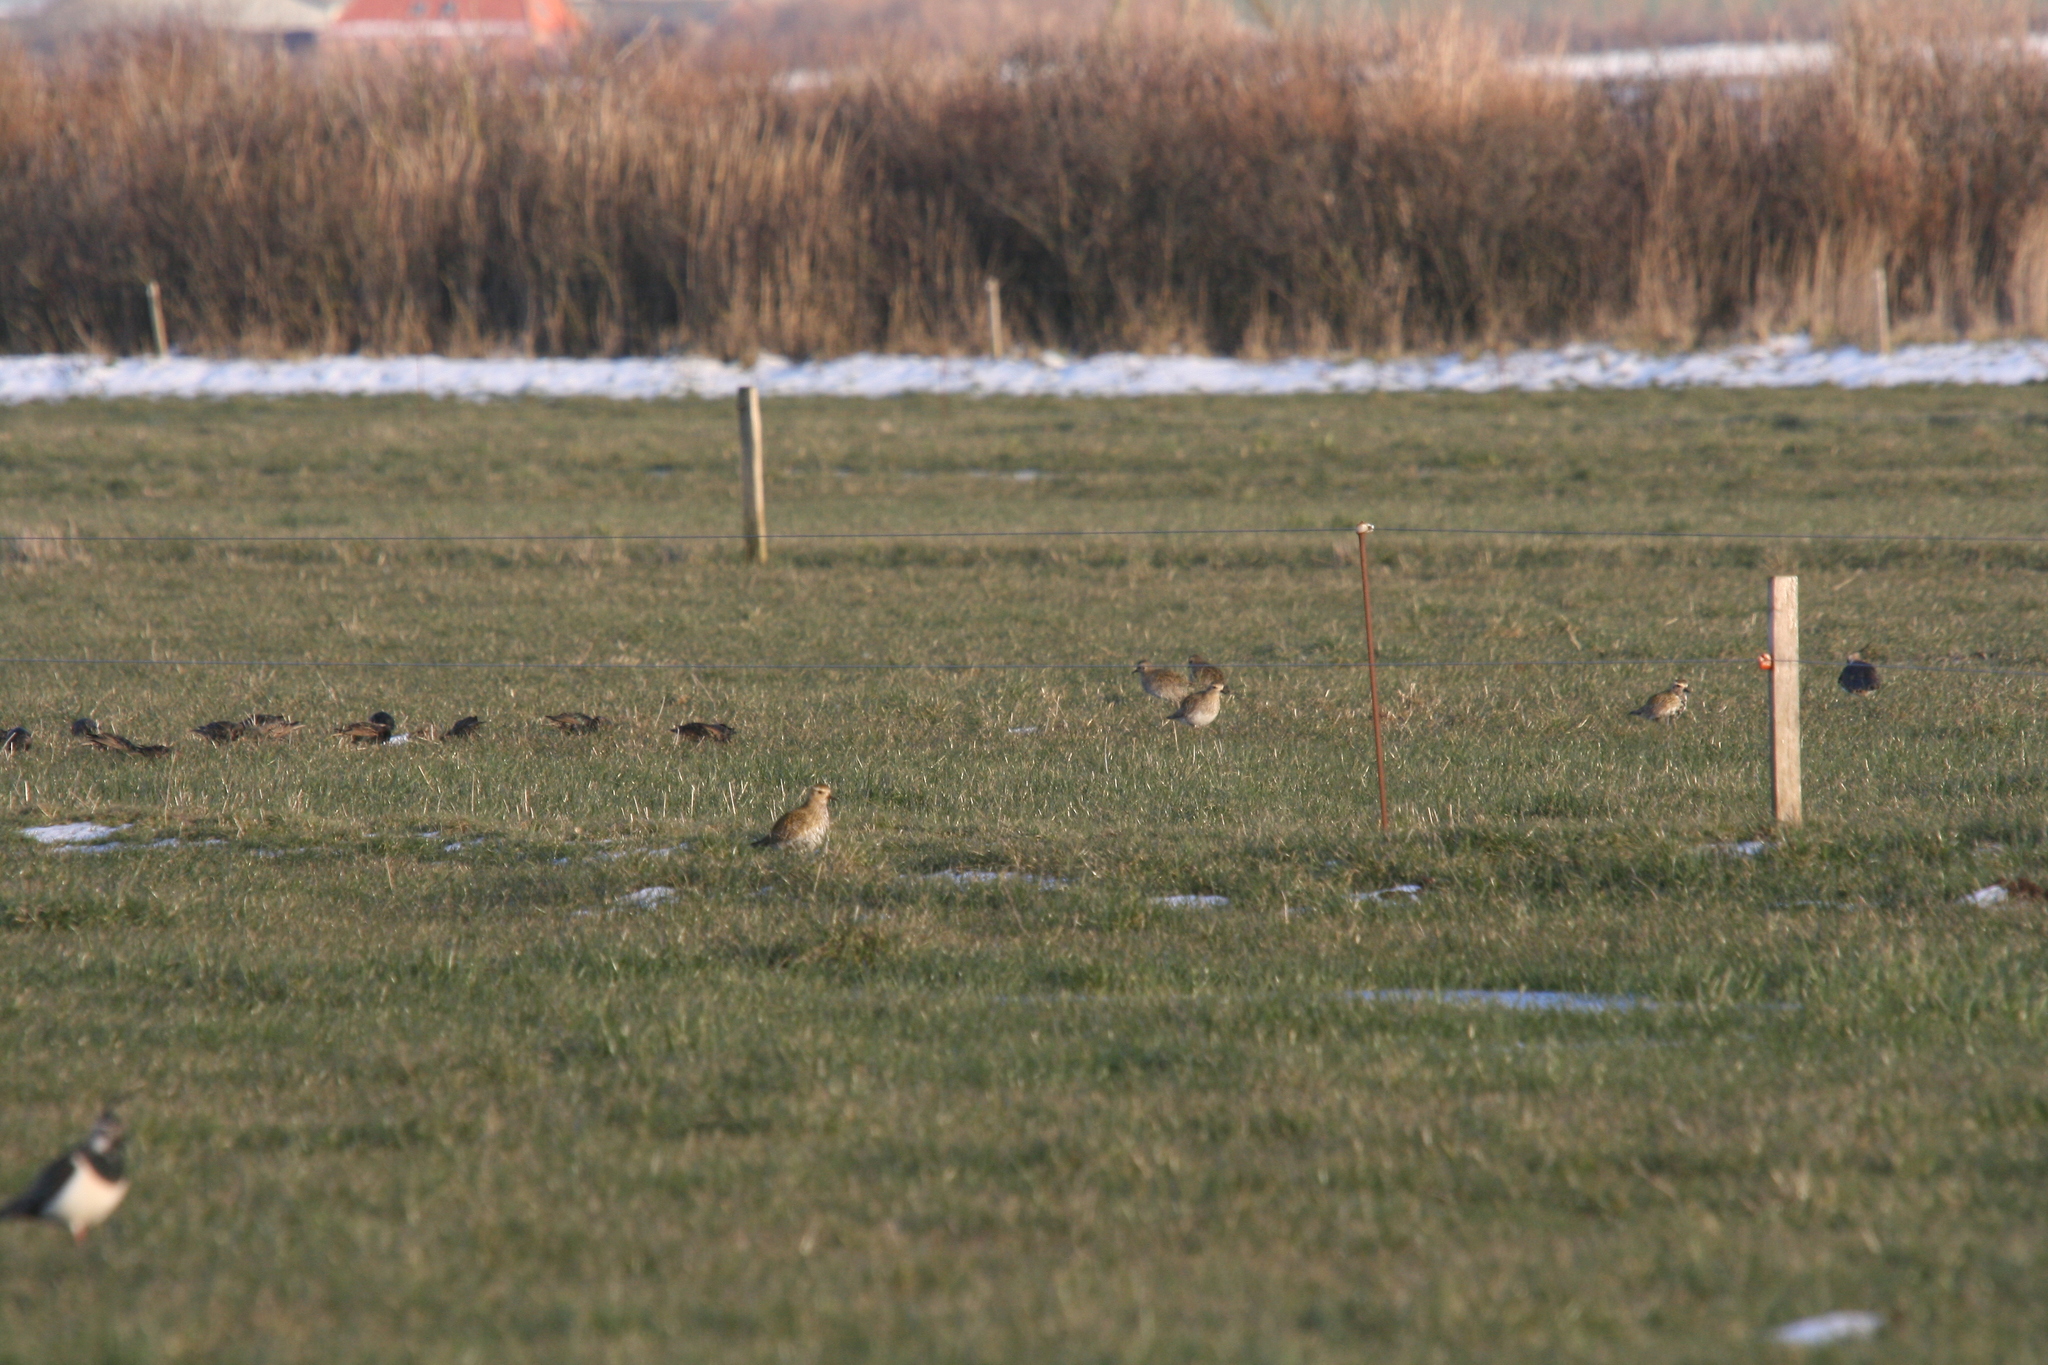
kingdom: Animalia
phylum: Chordata
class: Aves
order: Charadriiformes
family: Charadriidae
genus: Pluvialis
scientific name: Pluvialis apricaria
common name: European golden plover
